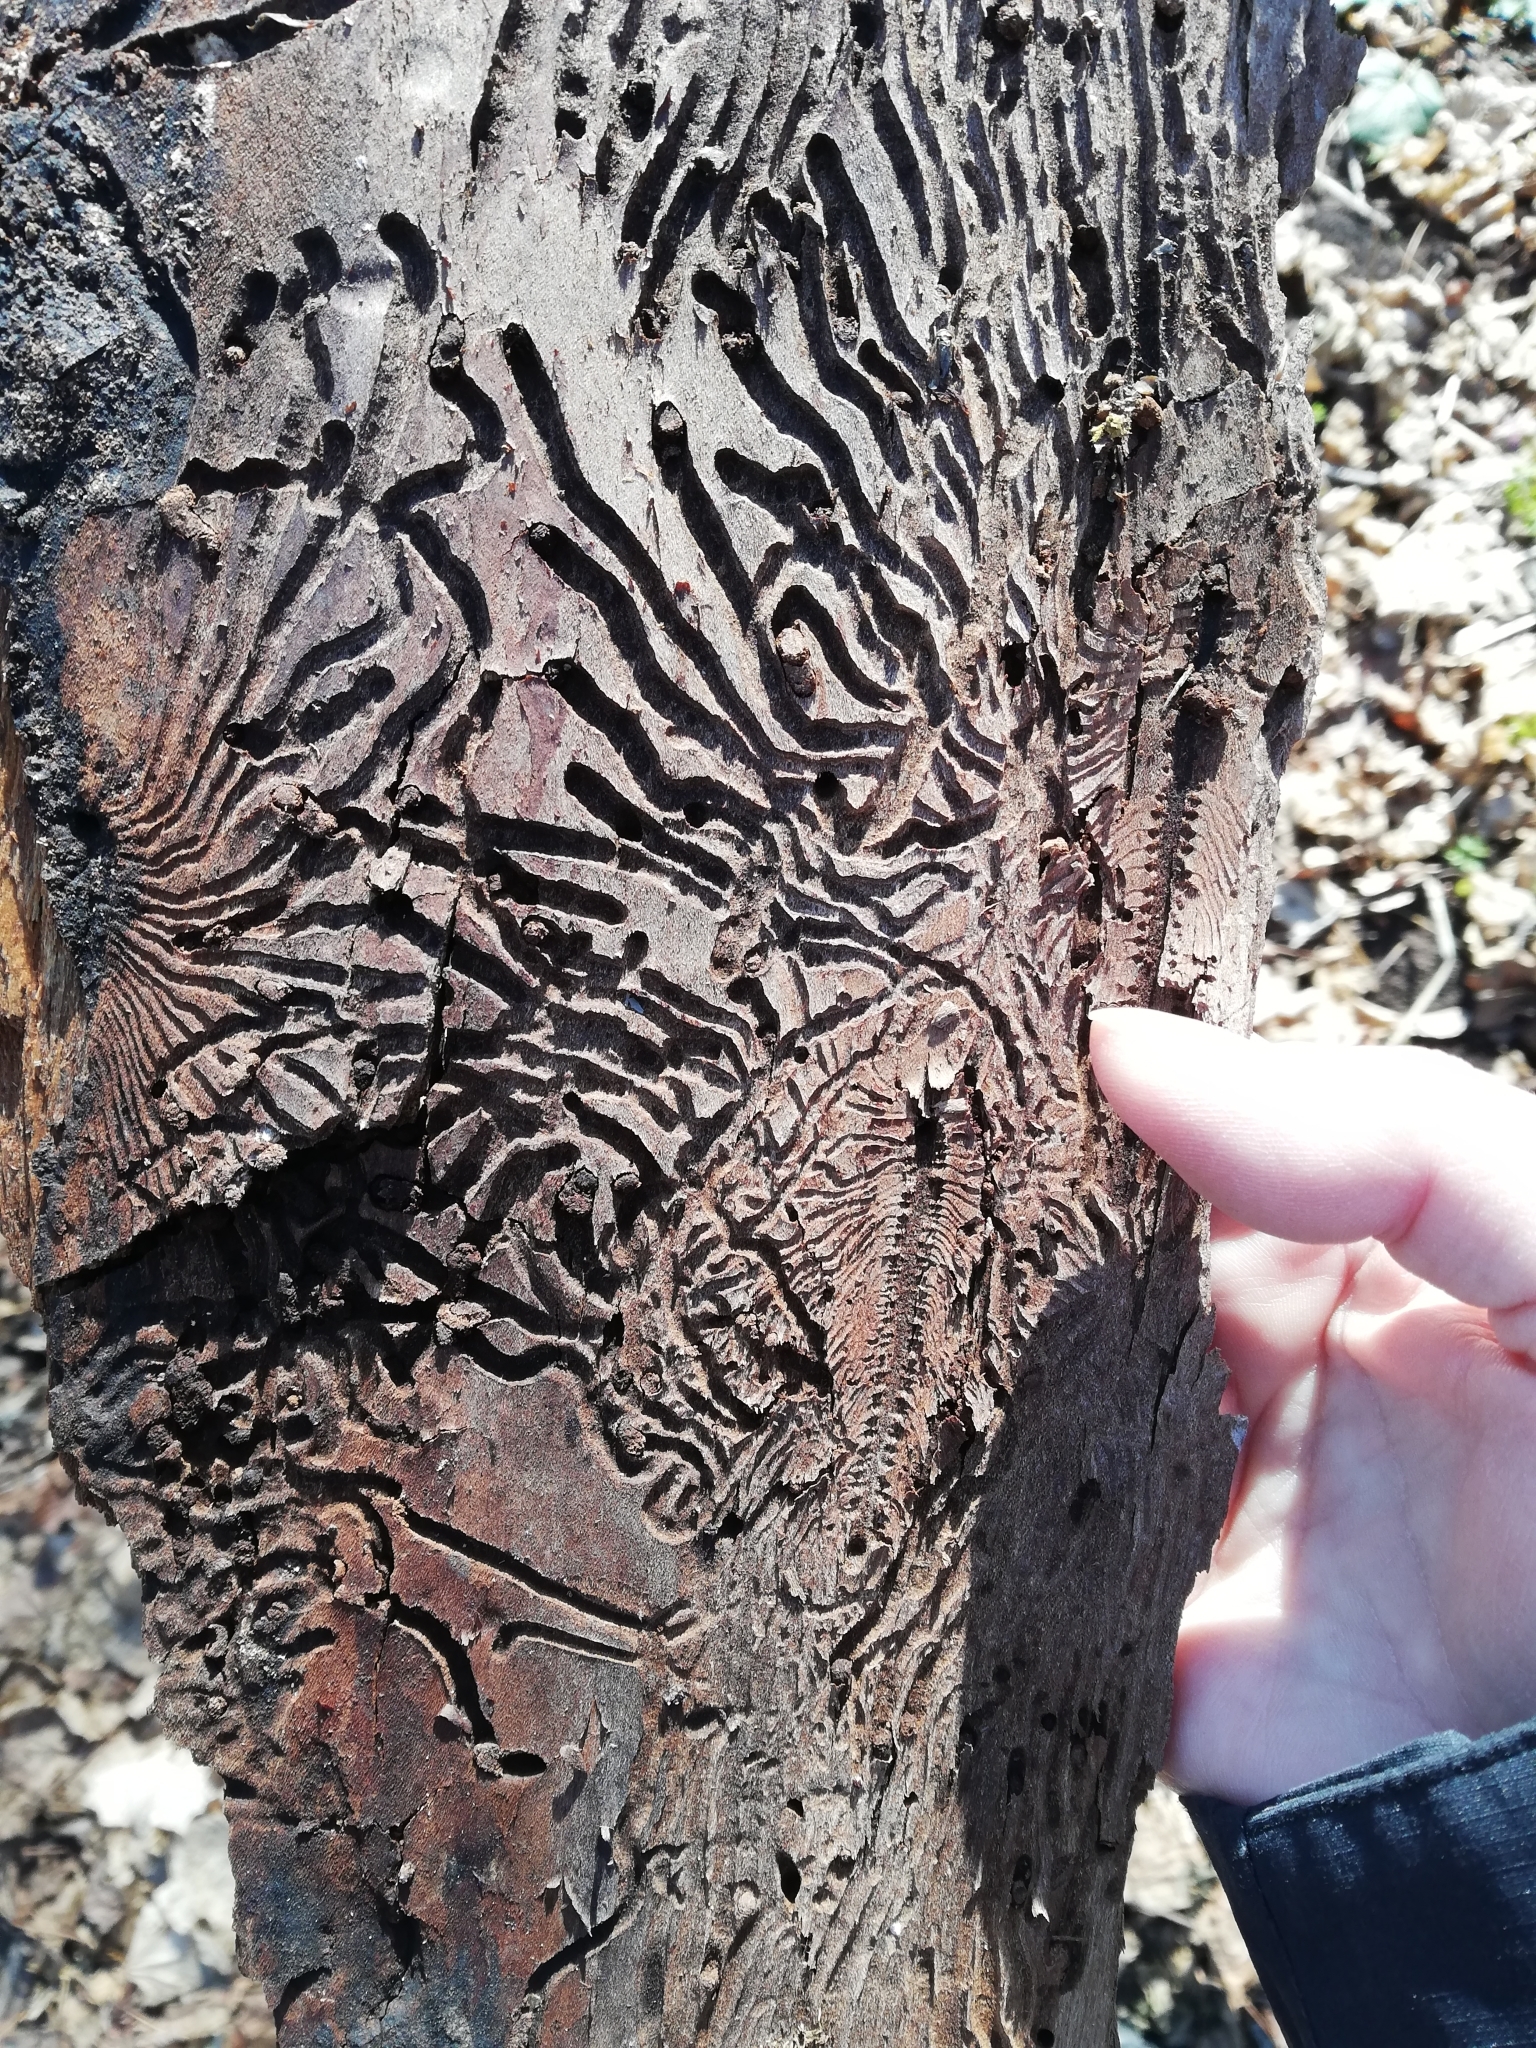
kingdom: Animalia
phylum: Arthropoda
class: Insecta
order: Coleoptera
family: Curculionidae
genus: Scolytus
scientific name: Scolytus scolytus
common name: Large elm bark beetle
